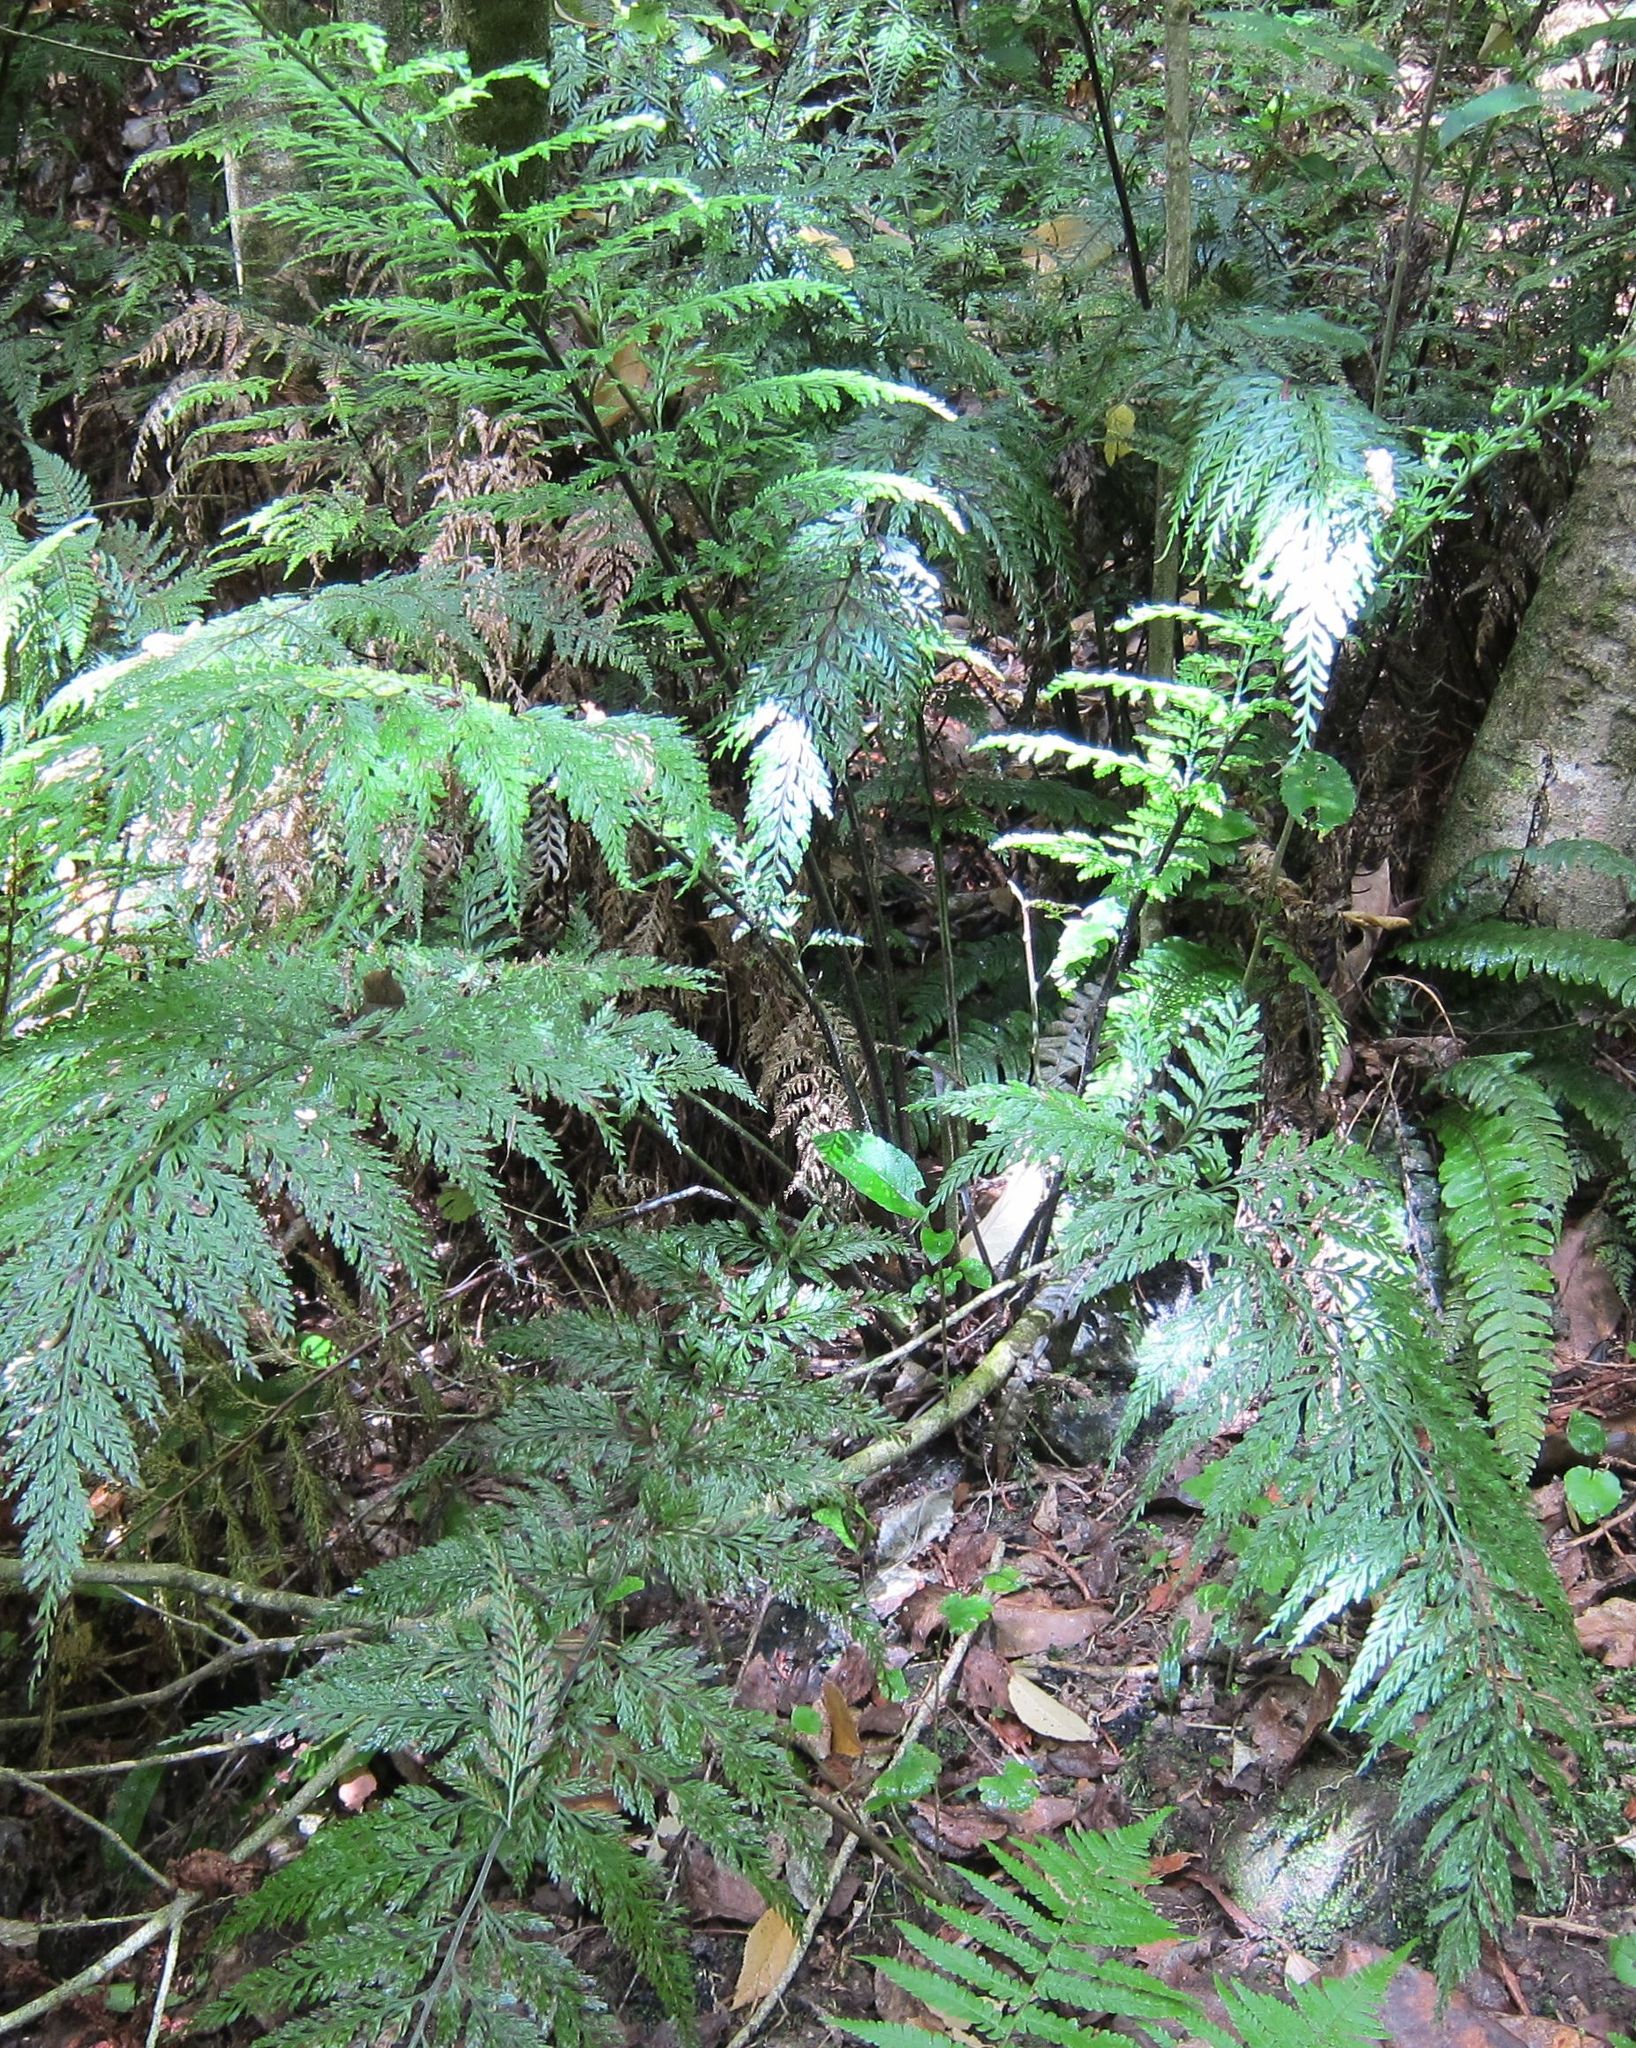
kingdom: Plantae
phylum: Tracheophyta
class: Polypodiopsida
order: Polypodiales
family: Aspleniaceae
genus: Asplenium
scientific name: Asplenium
